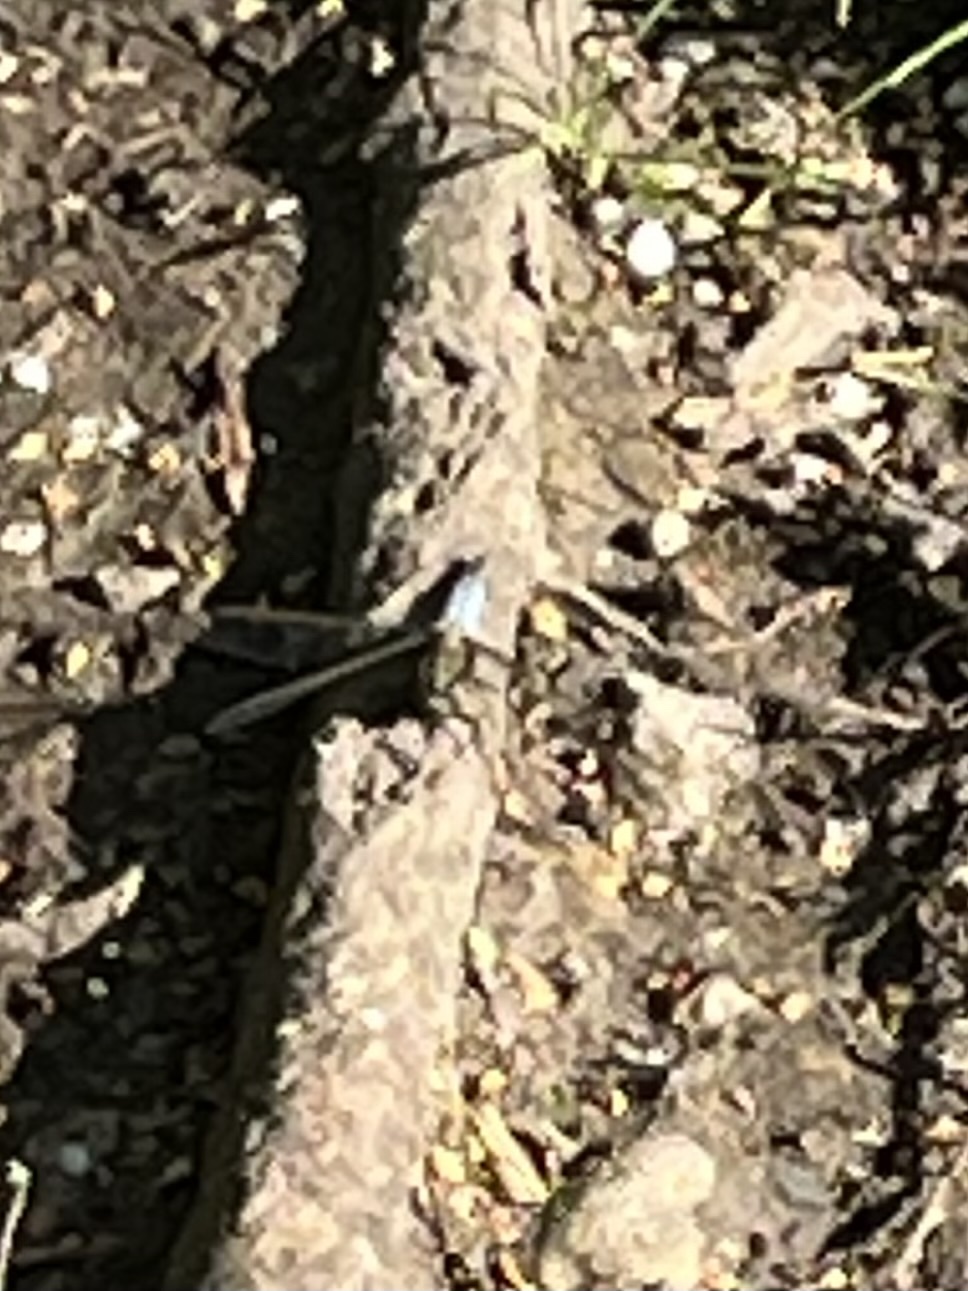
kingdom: Animalia
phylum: Arthropoda
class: Insecta
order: Odonata
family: Libellulidae
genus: Orthetrum
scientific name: Orthetrum cancellatum
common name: Black-tailed skimmer
